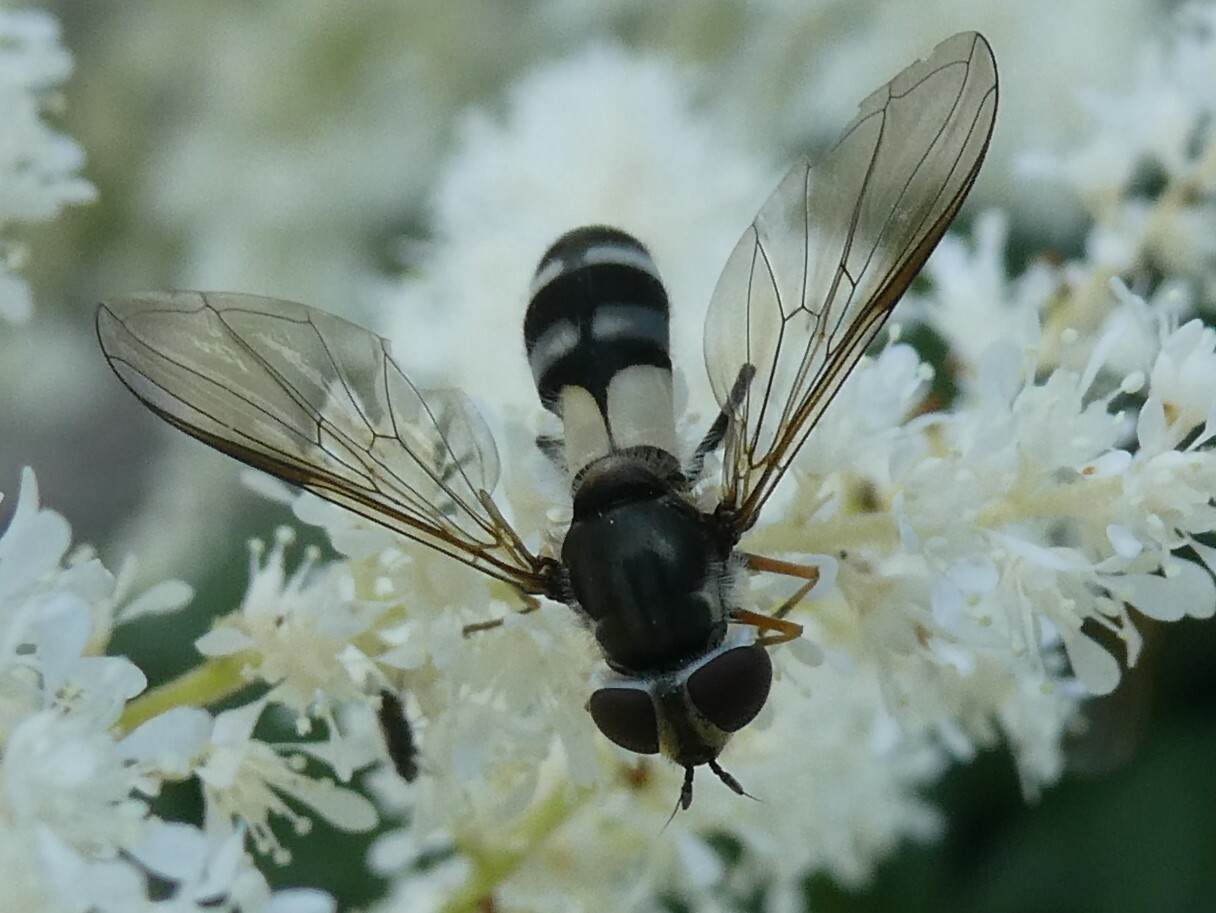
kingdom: Animalia
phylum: Arthropoda
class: Insecta
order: Diptera
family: Syrphidae
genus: Leucozona
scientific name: Leucozona xylotoides
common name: Eastern hoary
